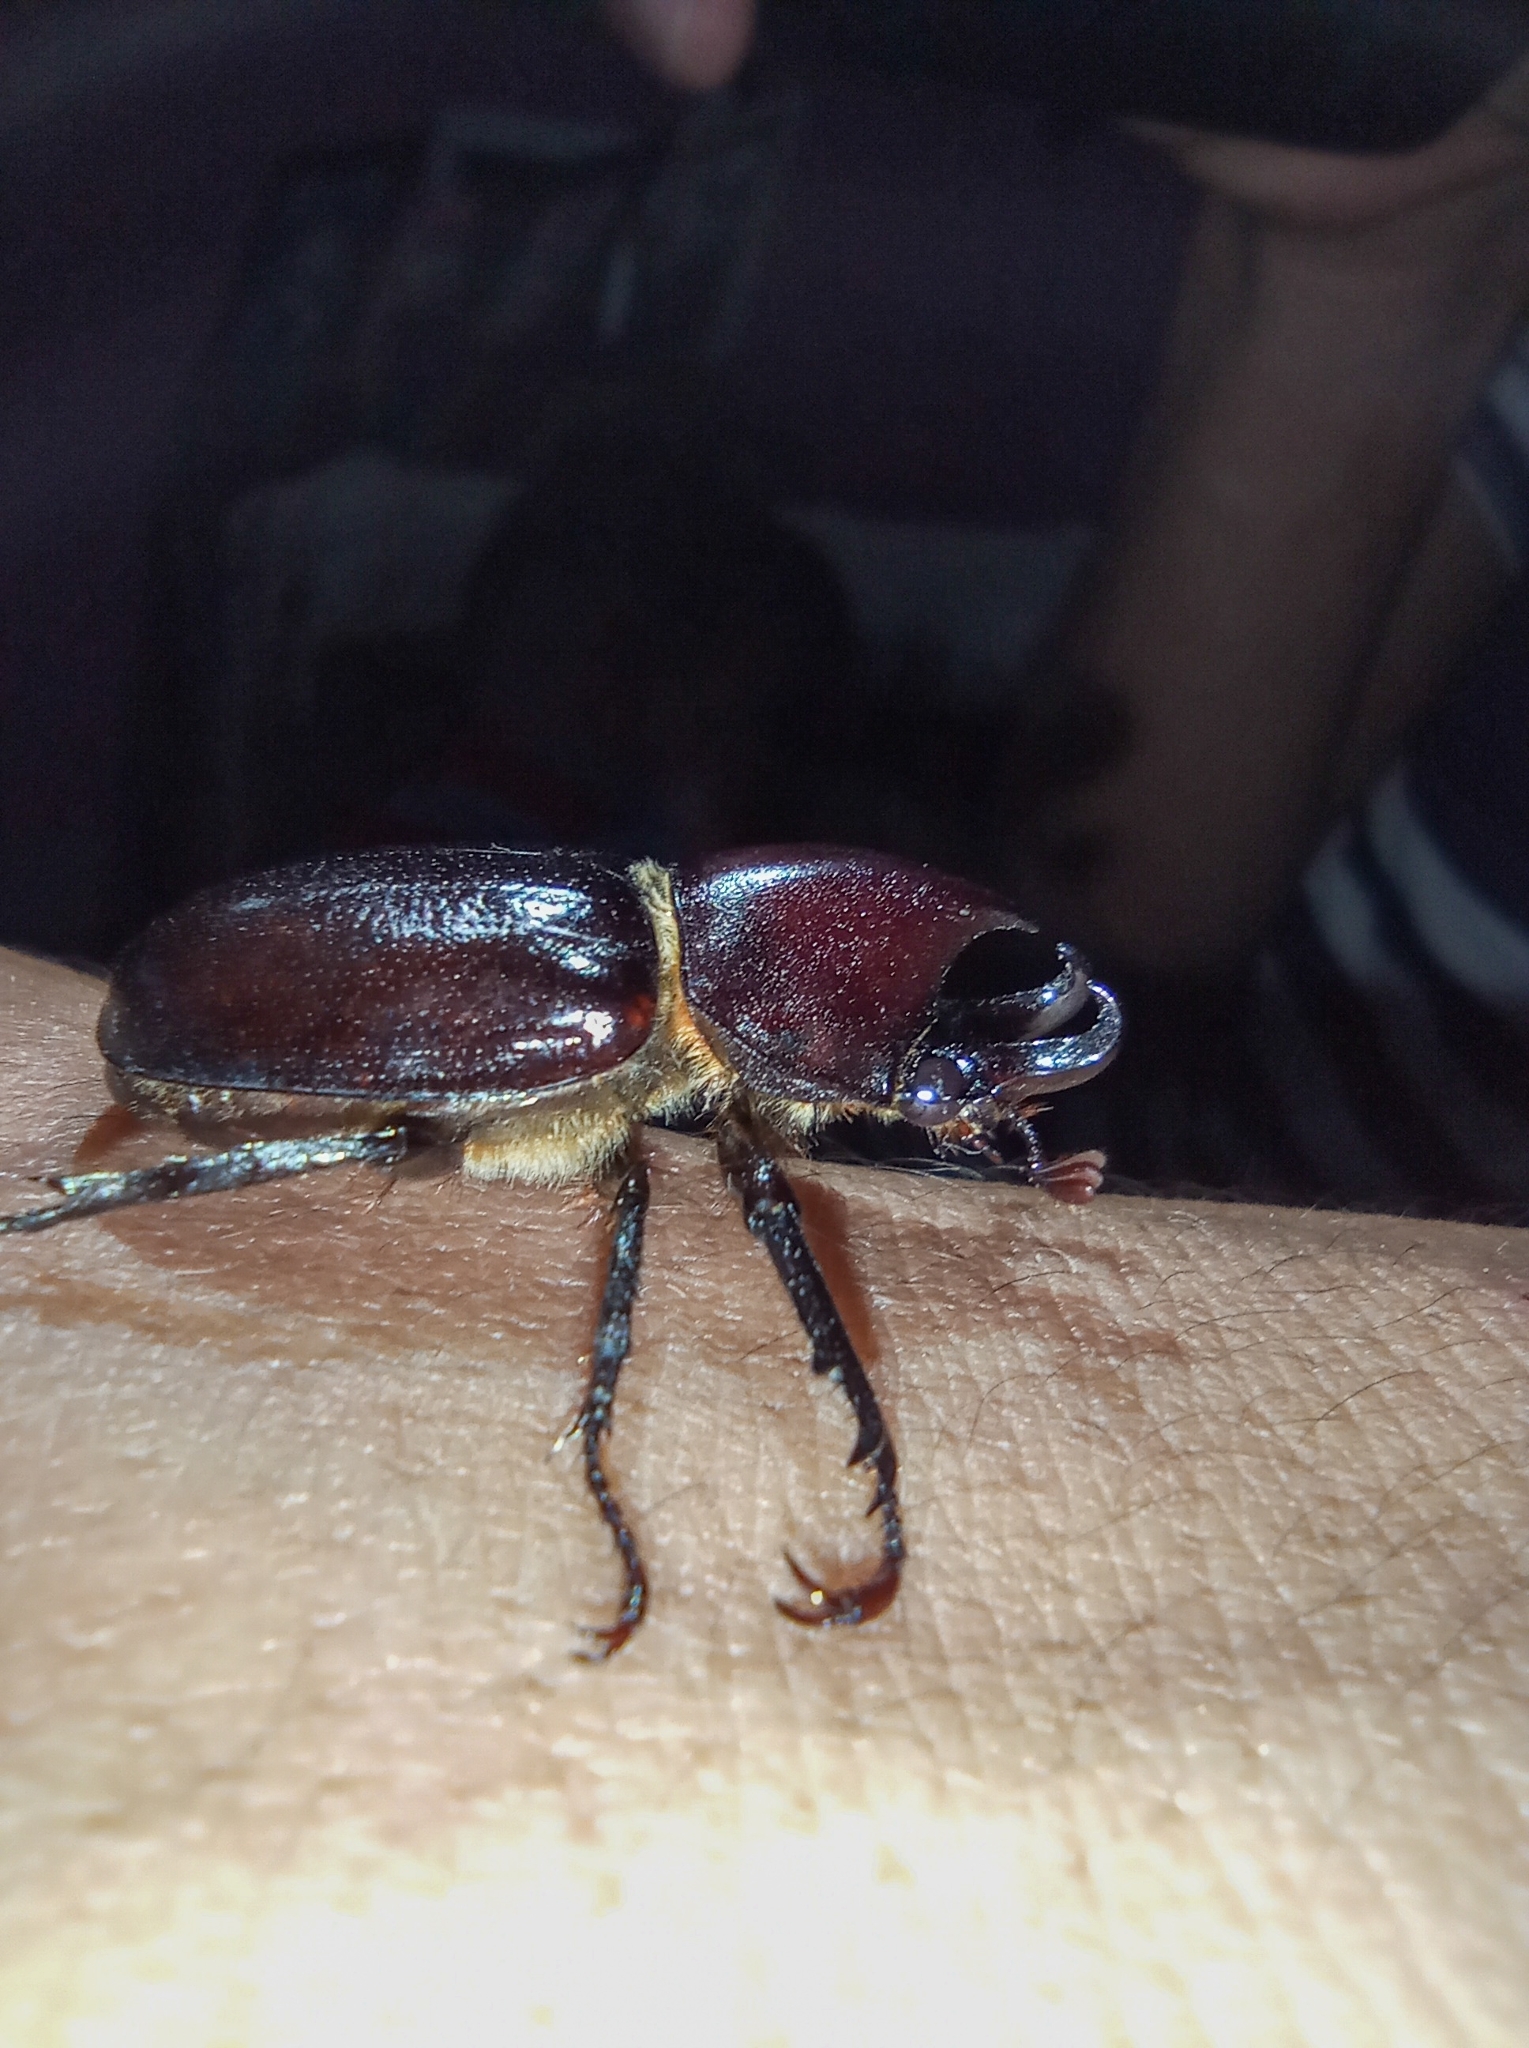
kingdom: Animalia
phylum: Arthropoda
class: Insecta
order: Coleoptera
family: Scarabaeidae
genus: Aegopsis
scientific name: Aegopsis curvicornis
